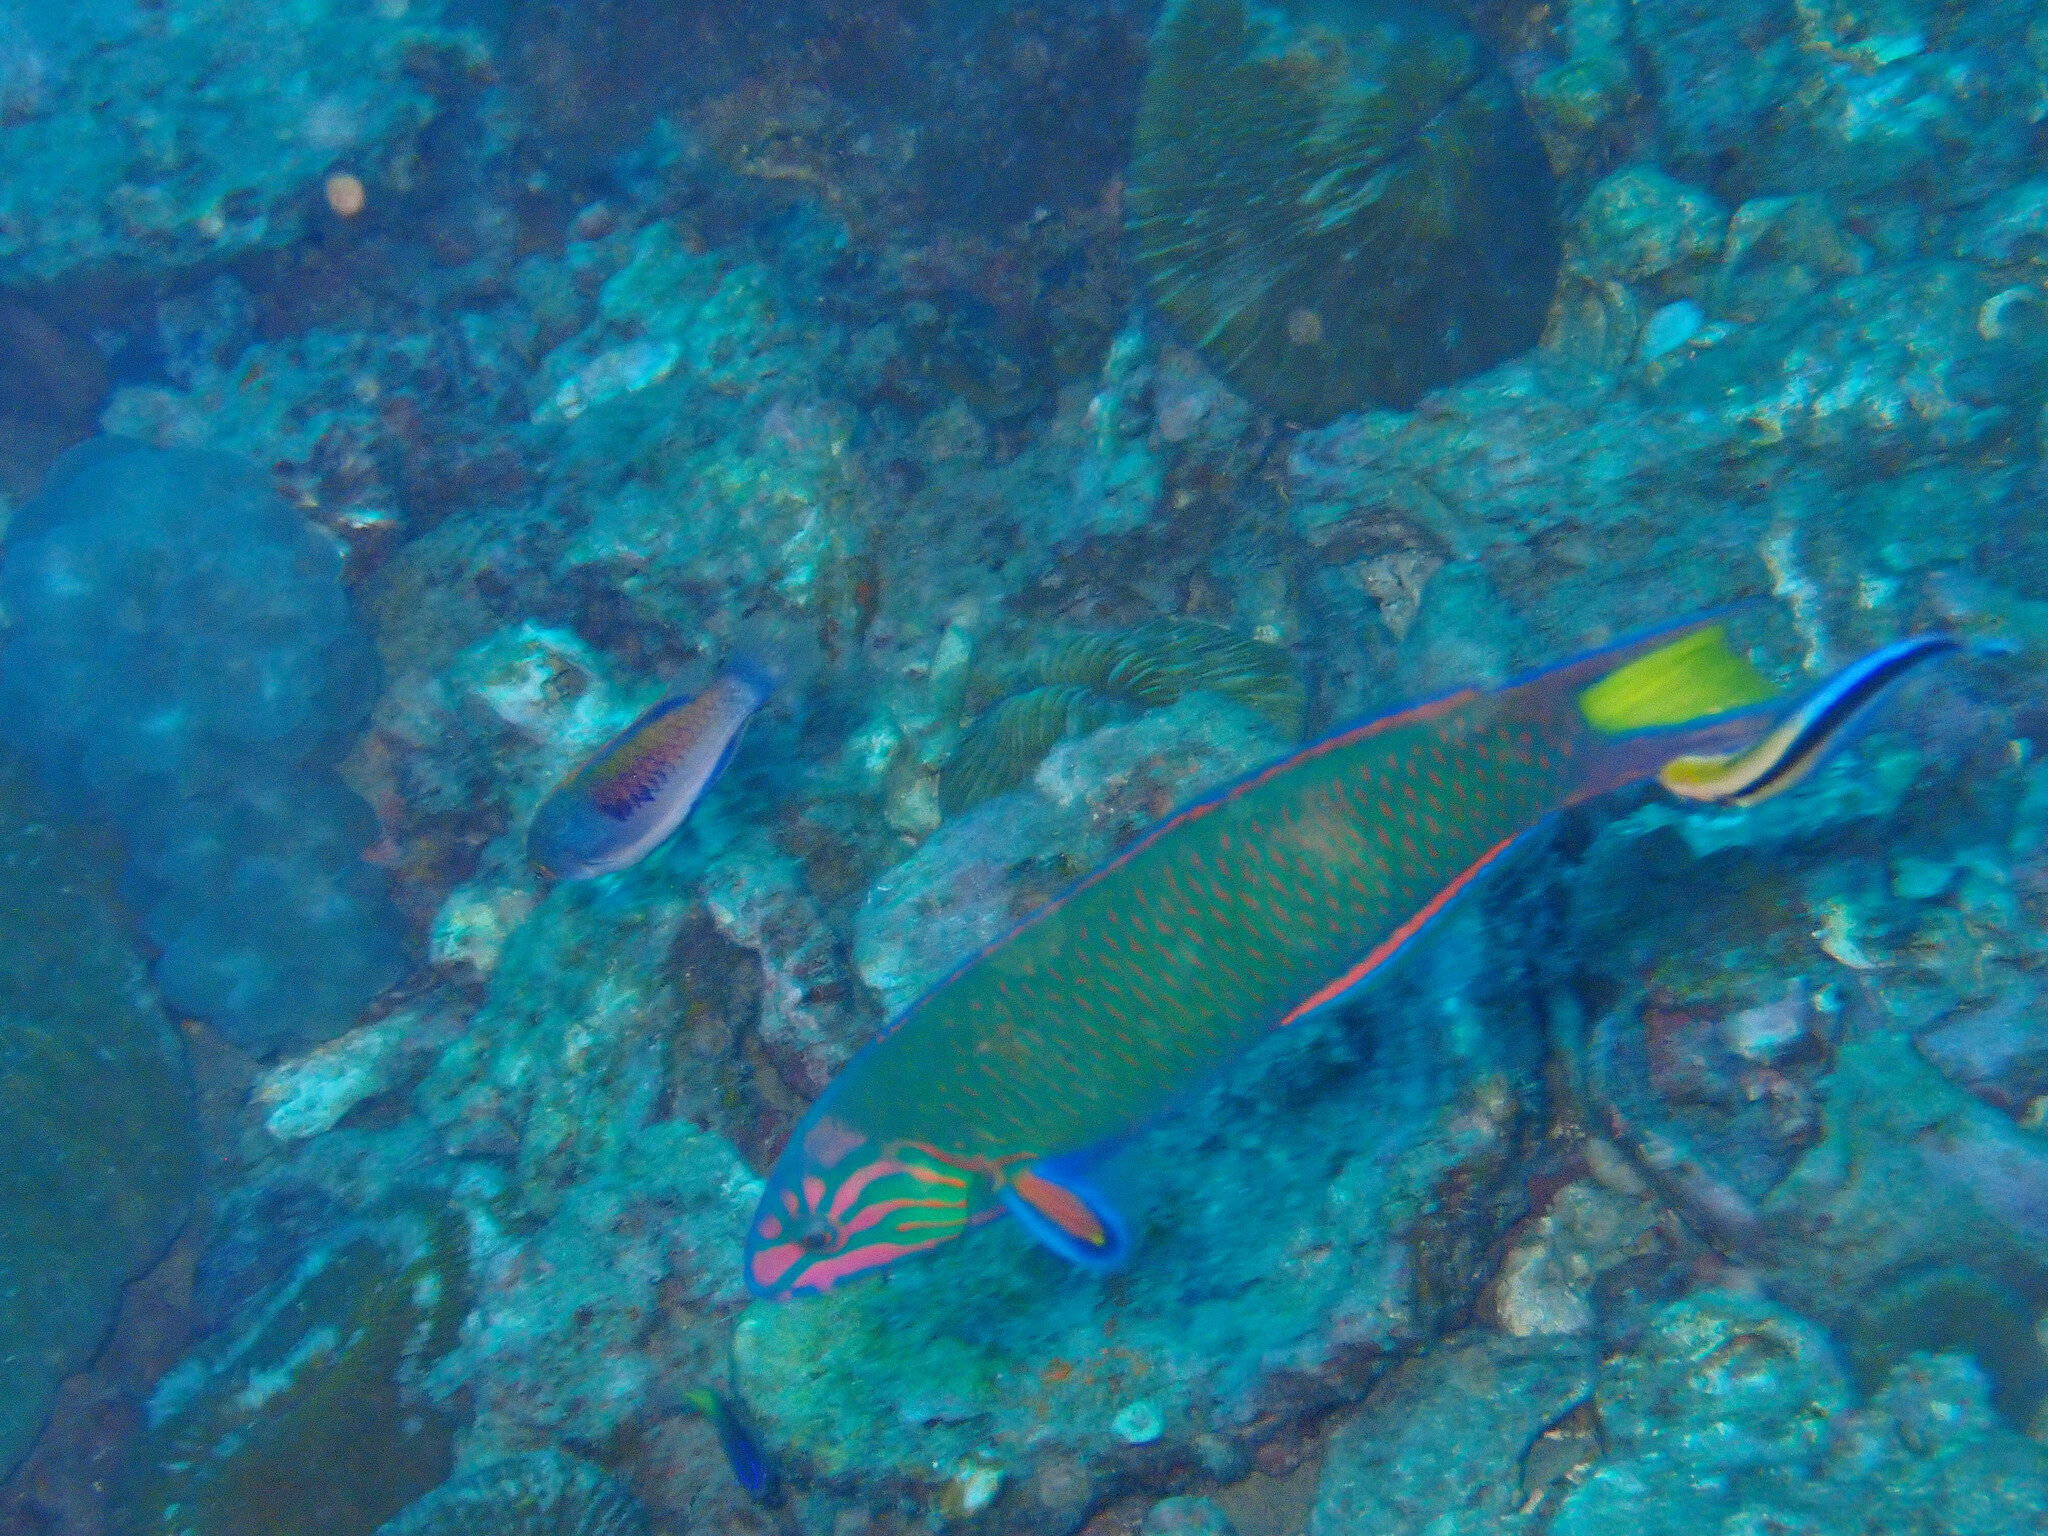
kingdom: Animalia
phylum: Chordata
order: Perciformes
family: Labridae
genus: Thalassoma
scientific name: Thalassoma lunare
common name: Blue wrasse
